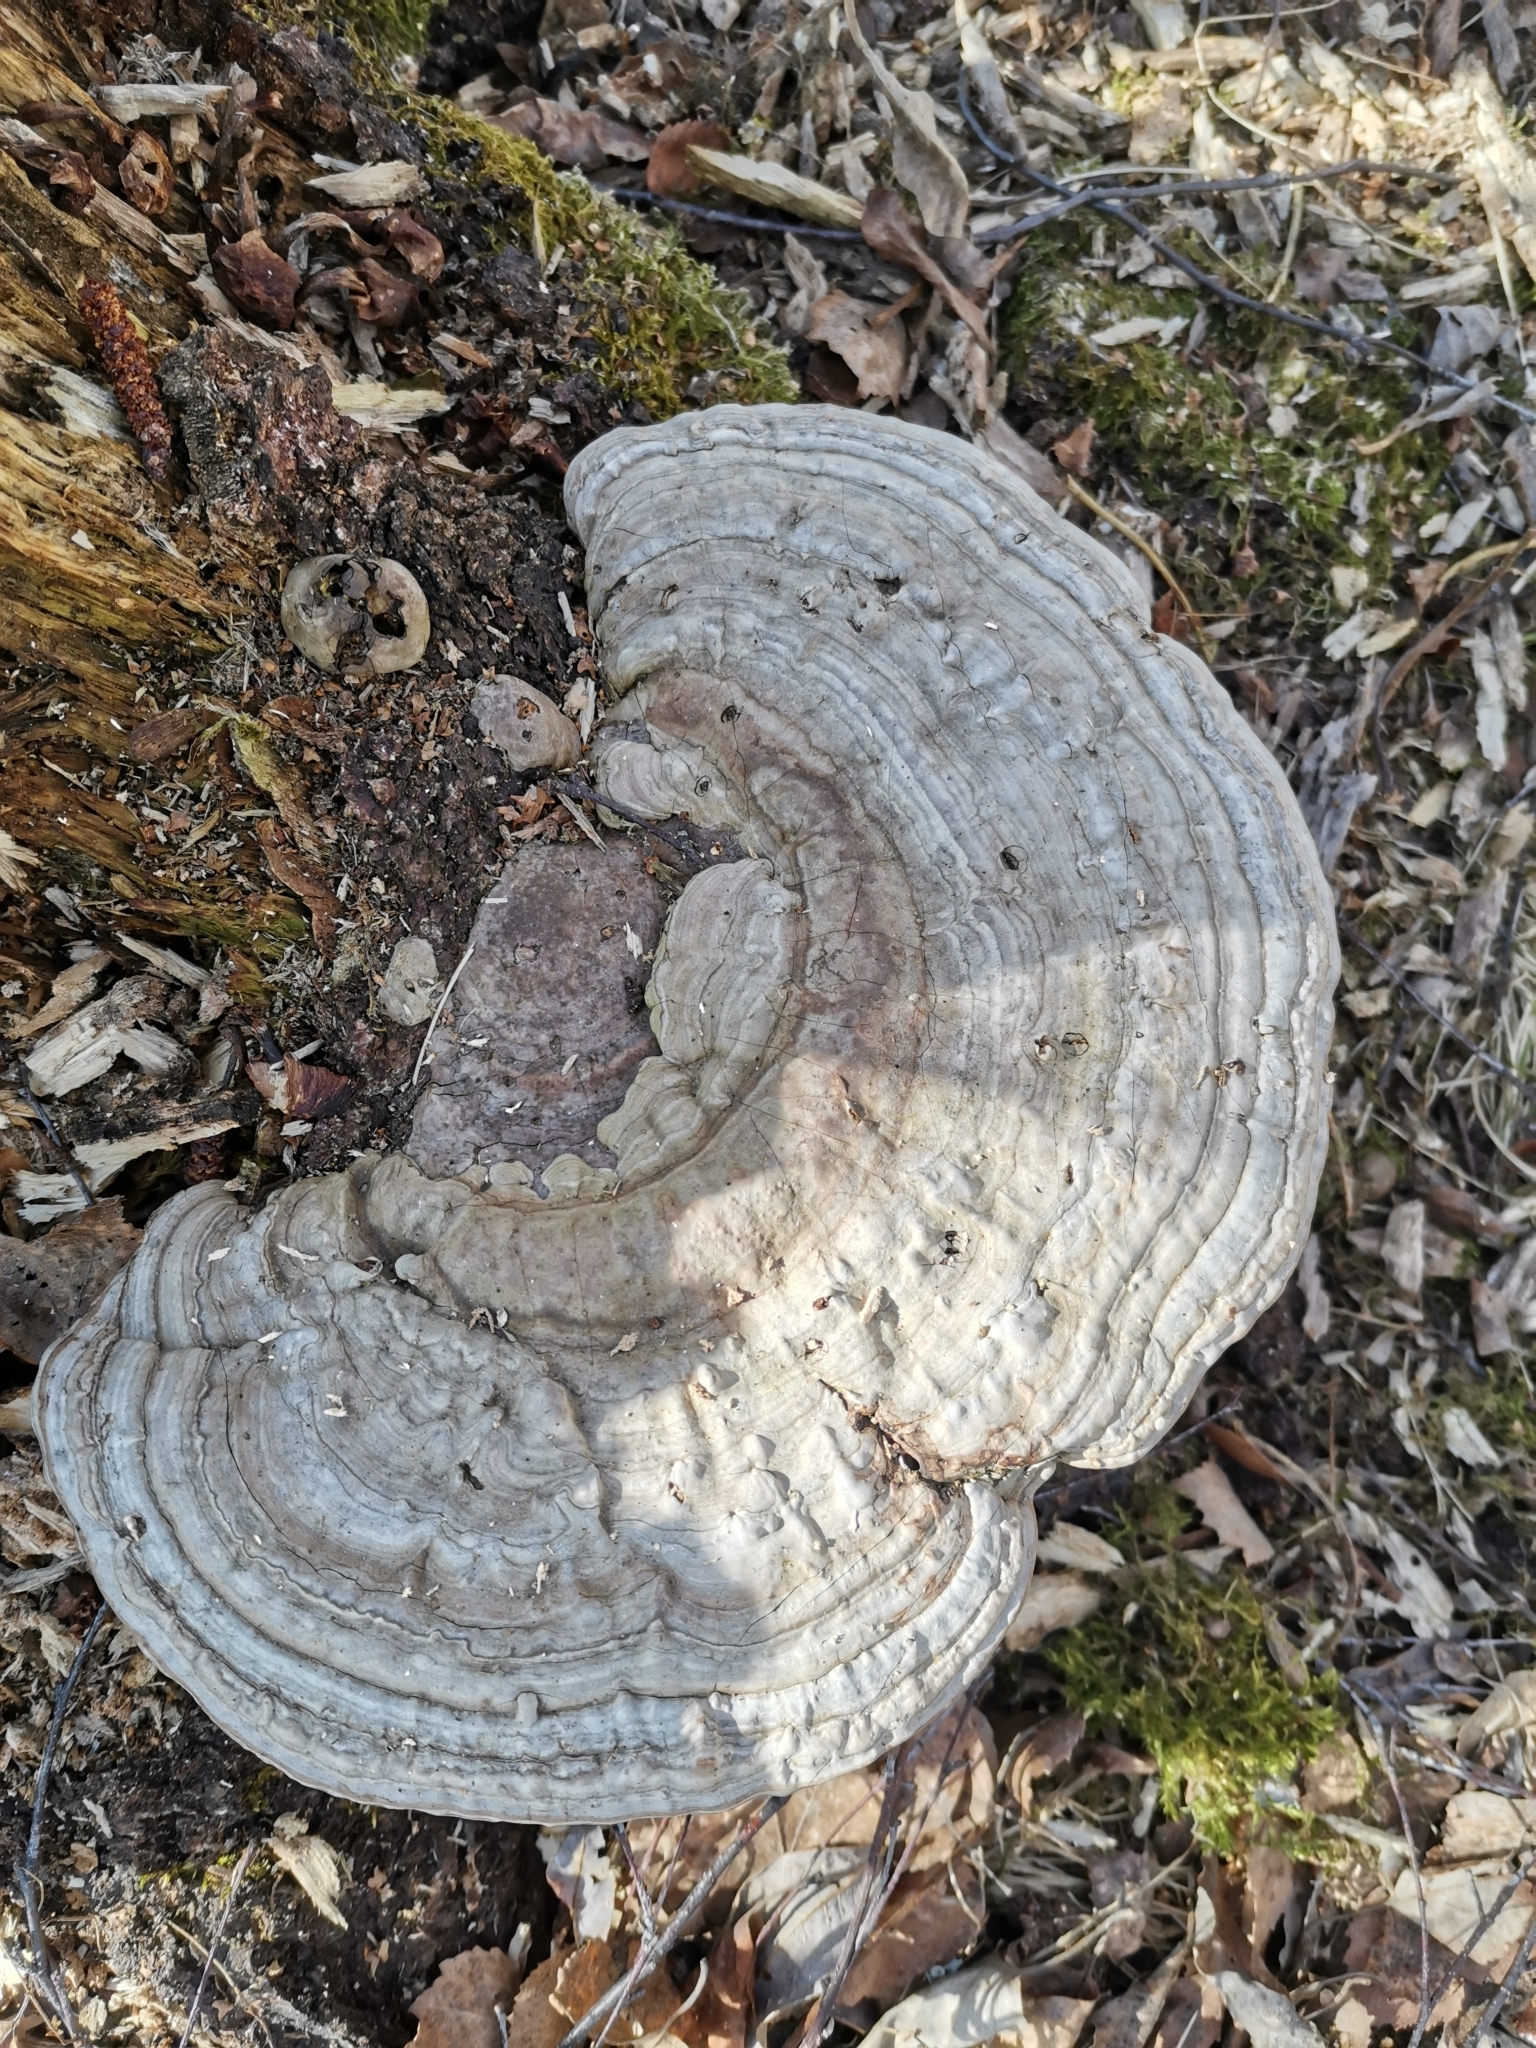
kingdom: Fungi
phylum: Basidiomycota
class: Agaricomycetes
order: Polyporales
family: Polyporaceae
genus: Ganoderma
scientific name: Ganoderma applanatum
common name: Artist's bracket
